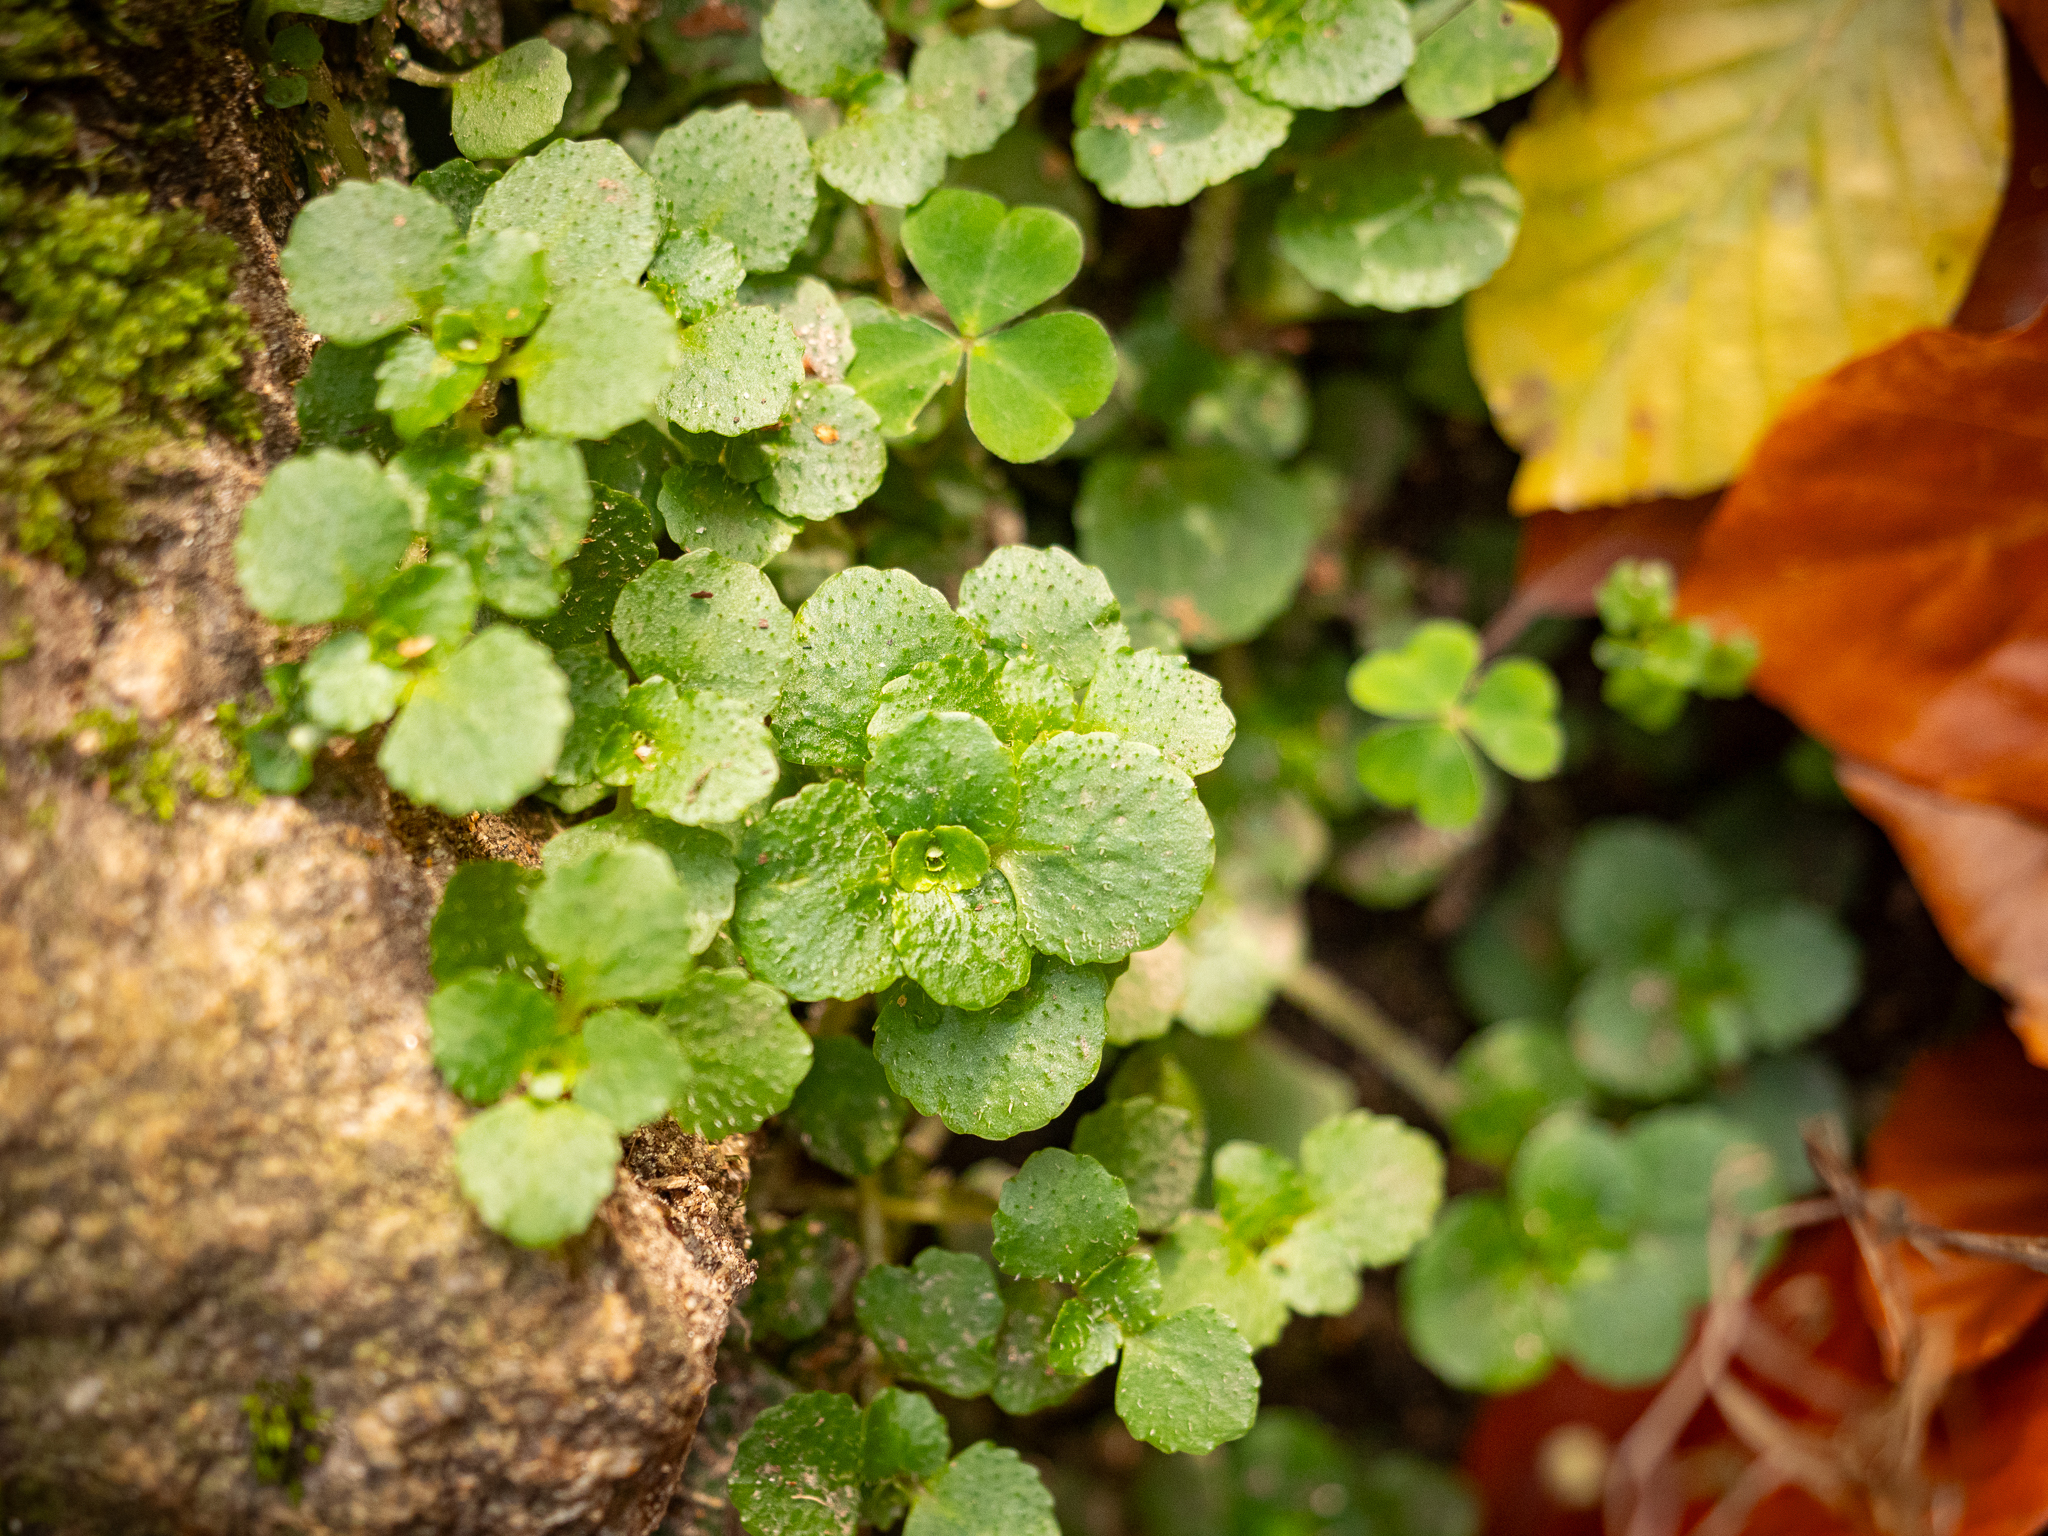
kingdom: Plantae
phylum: Tracheophyta
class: Magnoliopsida
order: Saxifragales
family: Saxifragaceae
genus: Chrysosplenium
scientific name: Chrysosplenium oppositifolium
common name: Opposite-leaved golden-saxifrage
